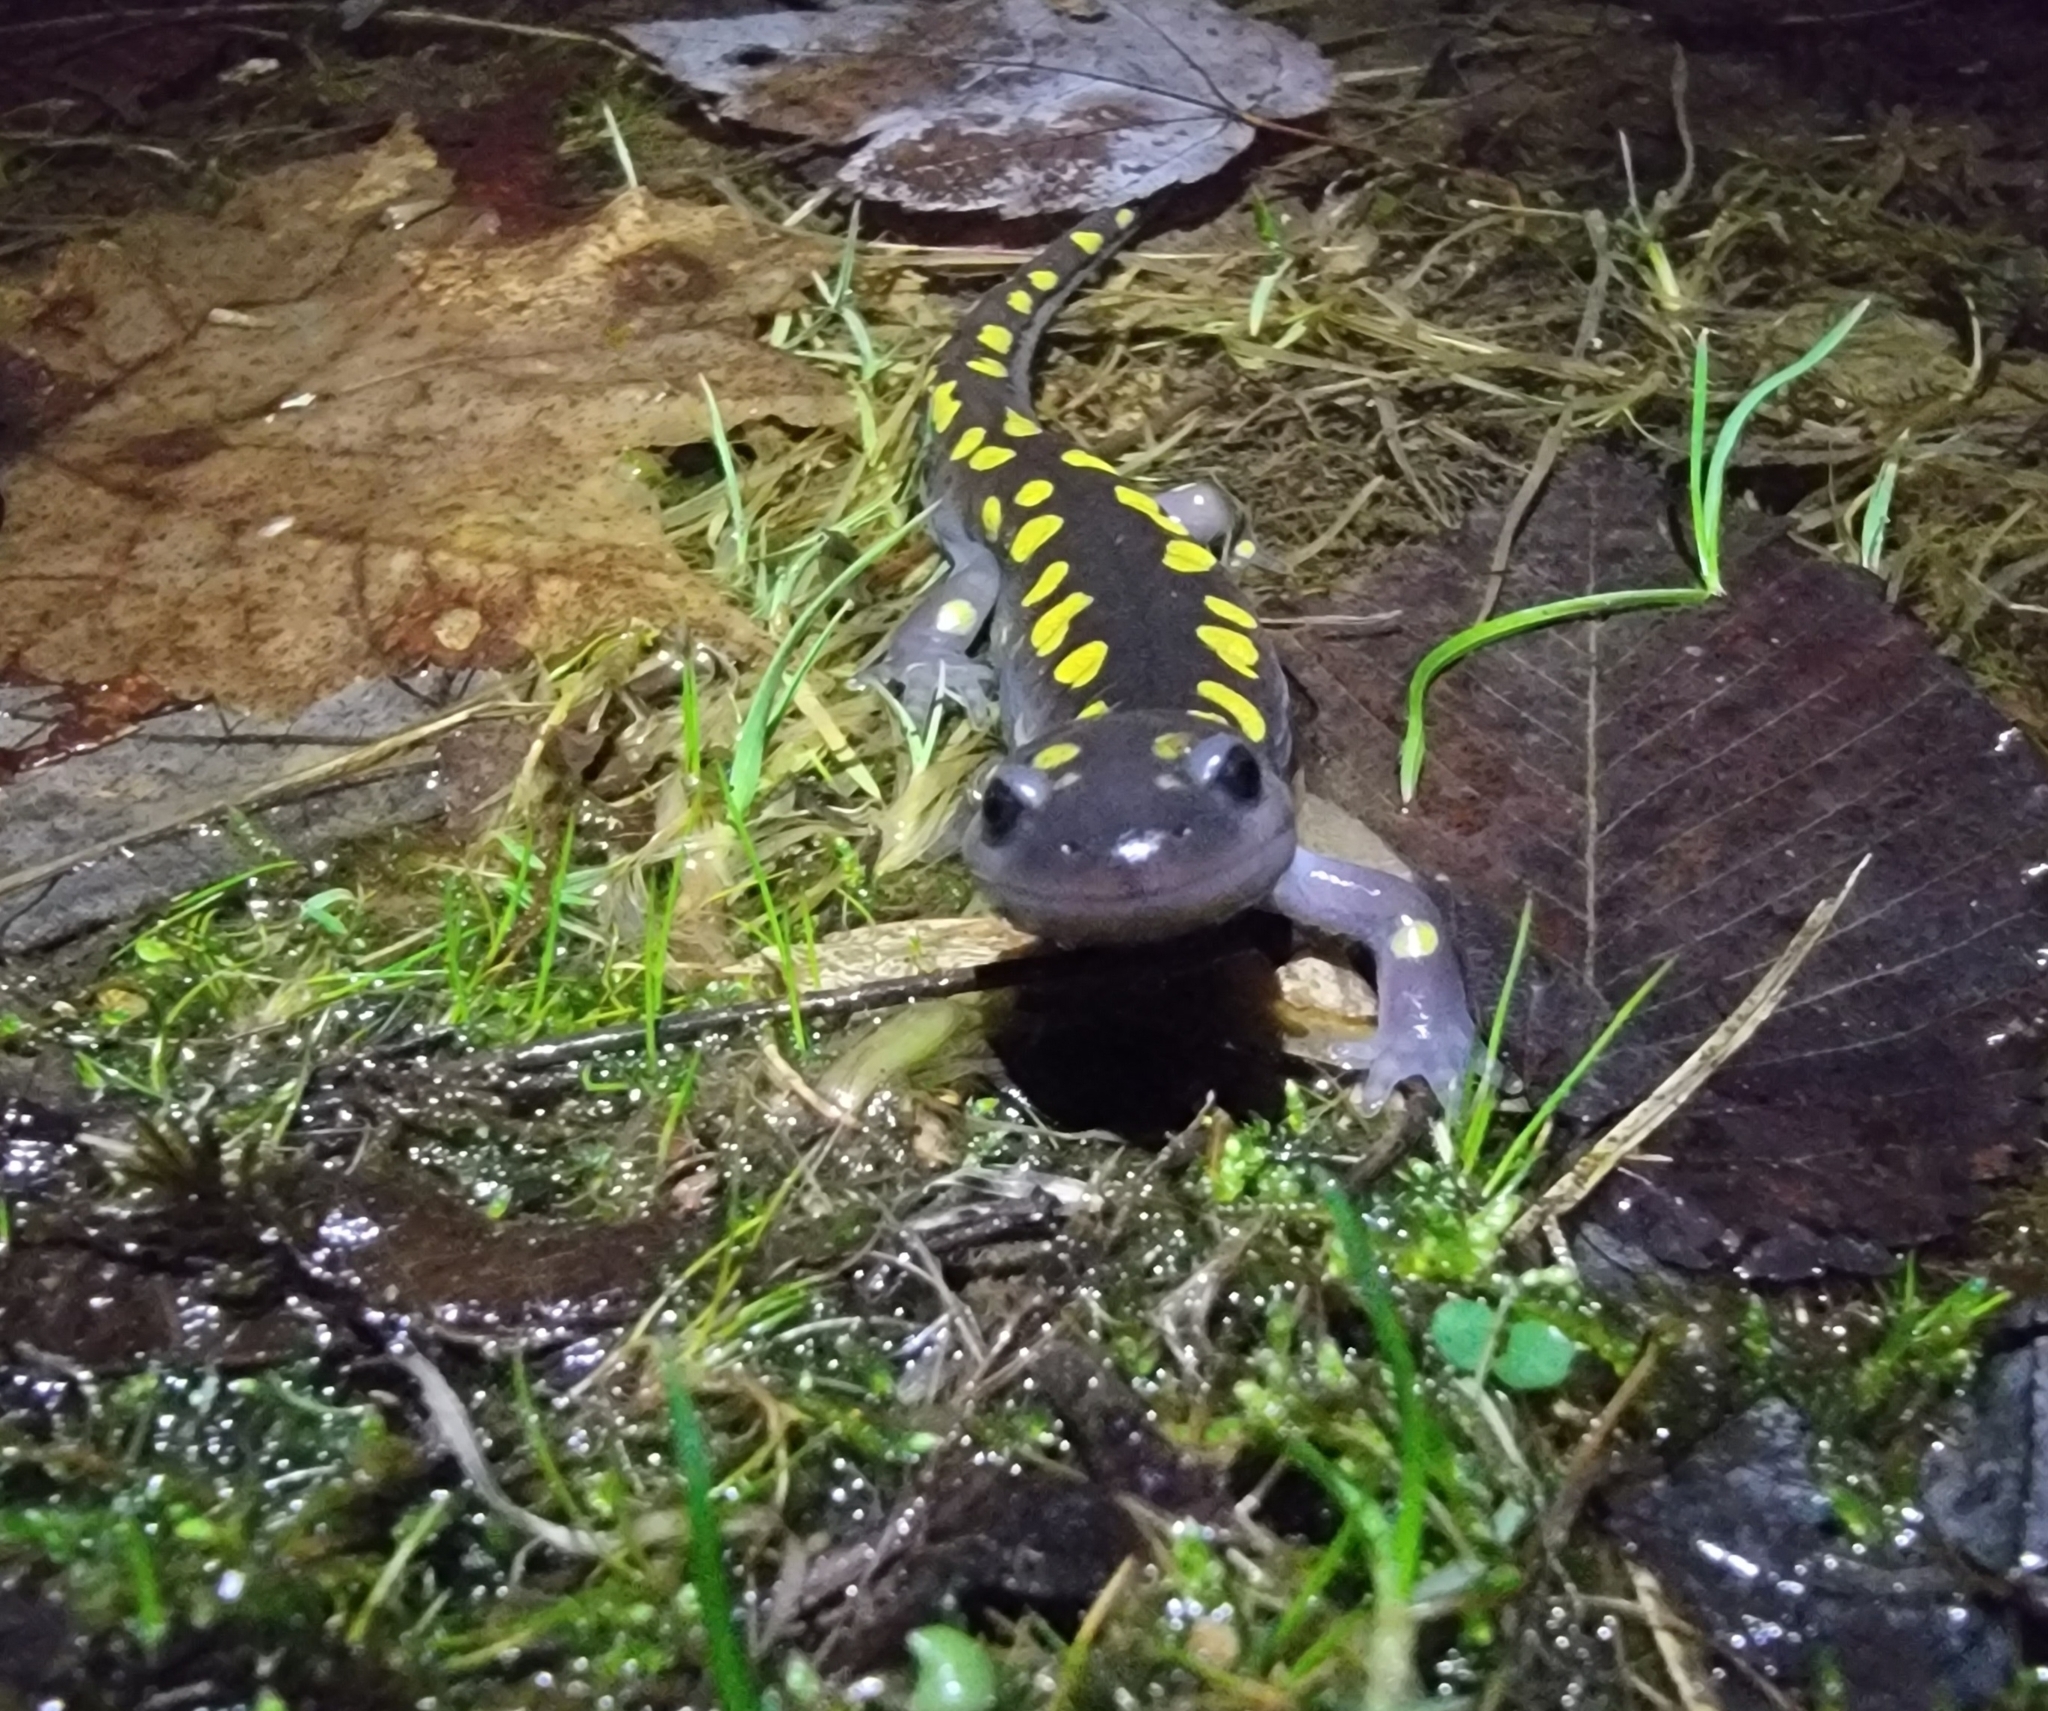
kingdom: Animalia
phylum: Chordata
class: Amphibia
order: Caudata
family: Ambystomatidae
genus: Ambystoma
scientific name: Ambystoma maculatum
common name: Spotted salamander
